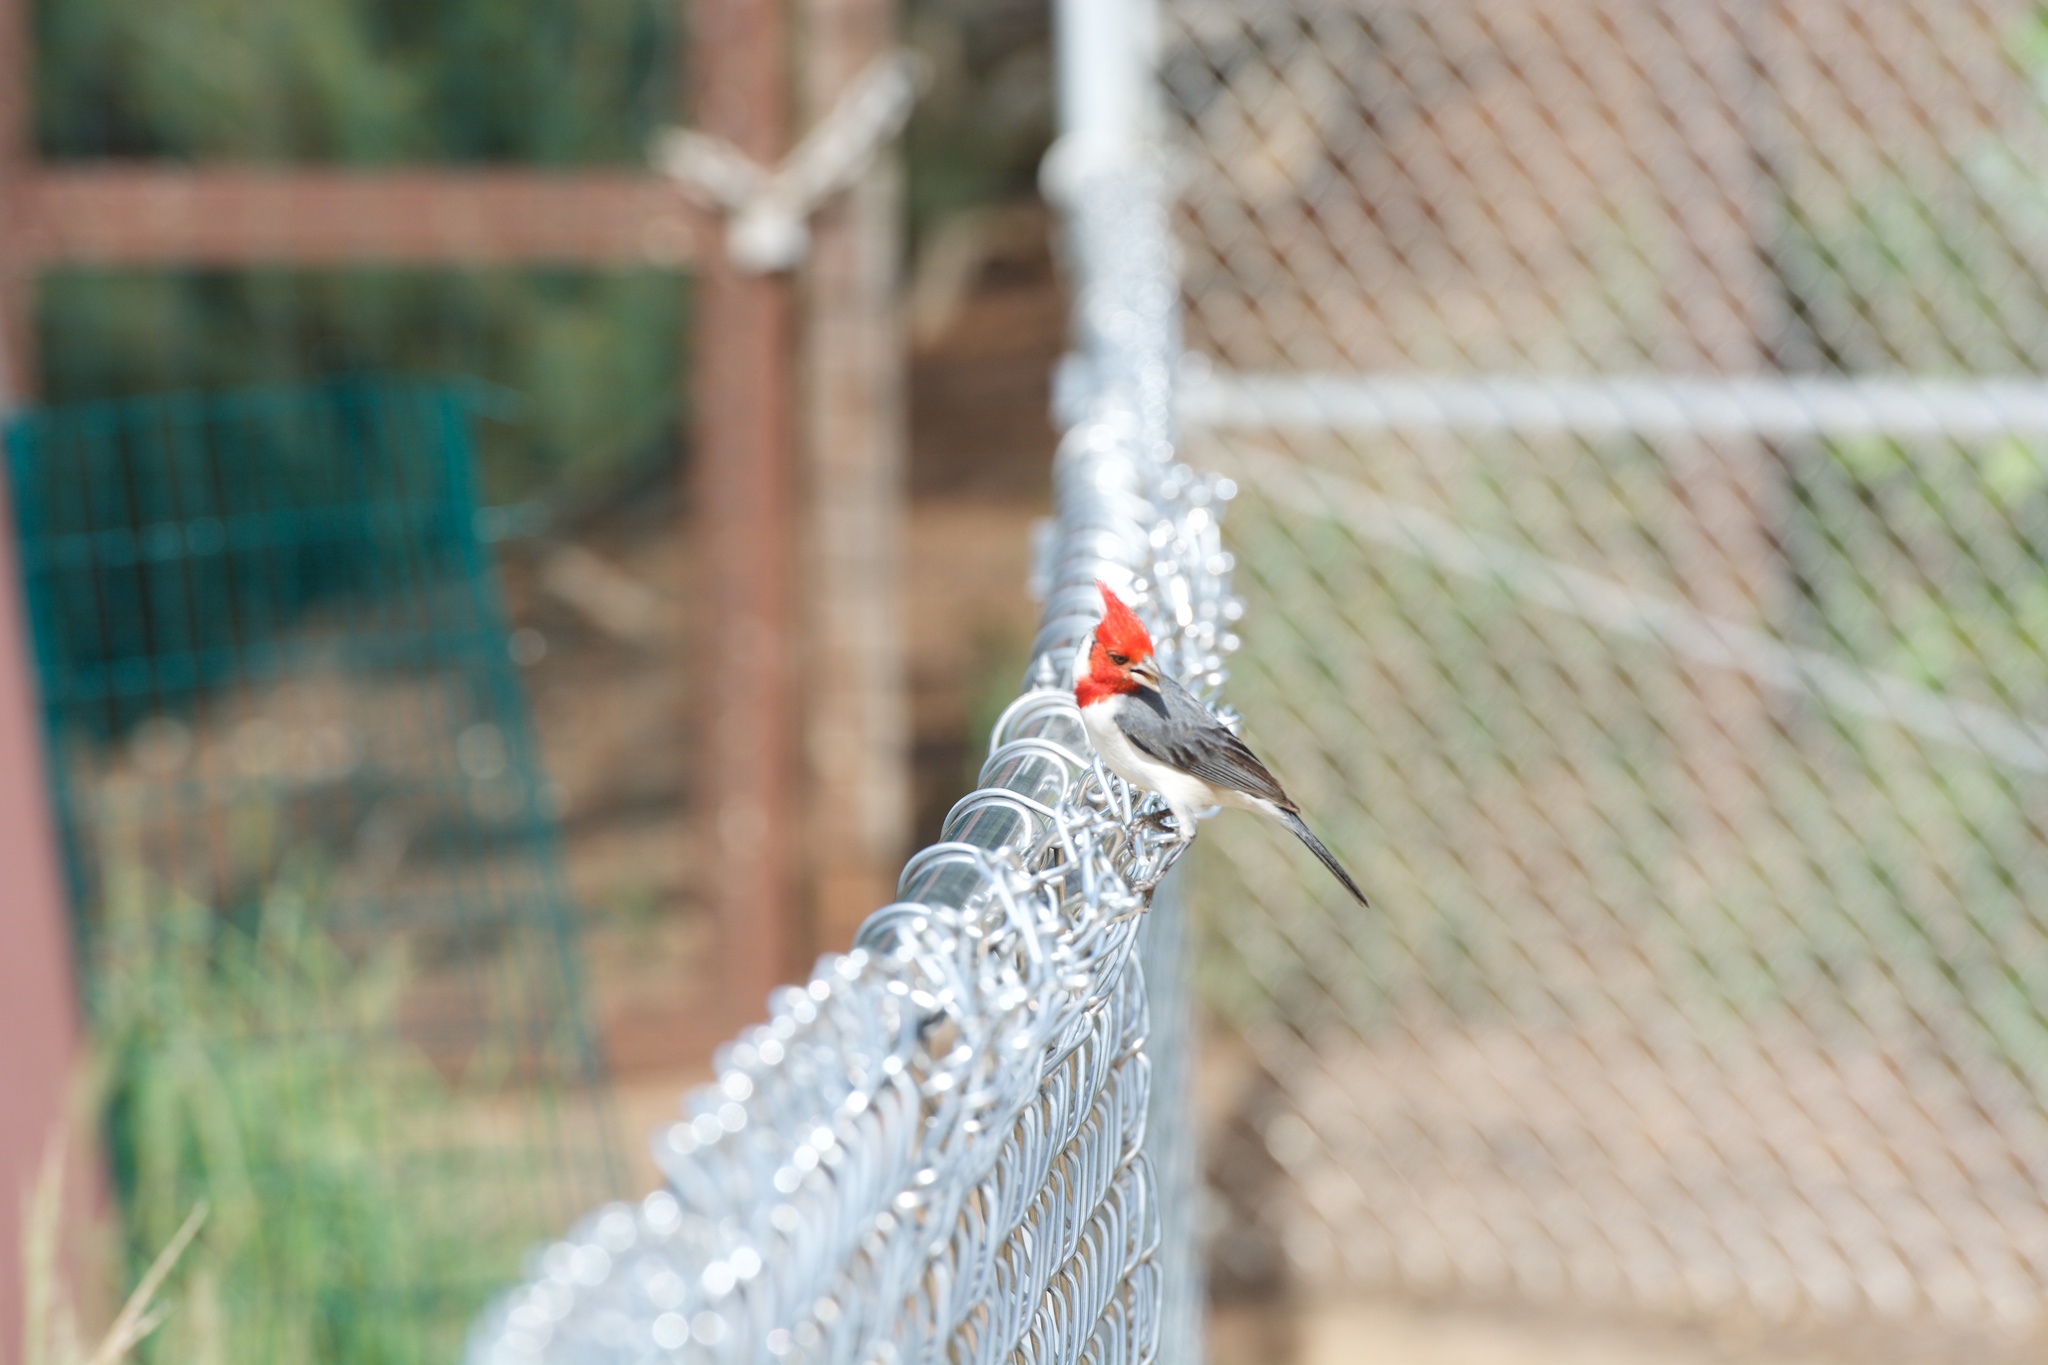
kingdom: Animalia
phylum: Chordata
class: Aves
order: Passeriformes
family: Thraupidae
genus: Paroaria
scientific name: Paroaria coronata
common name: Red-crested cardinal
